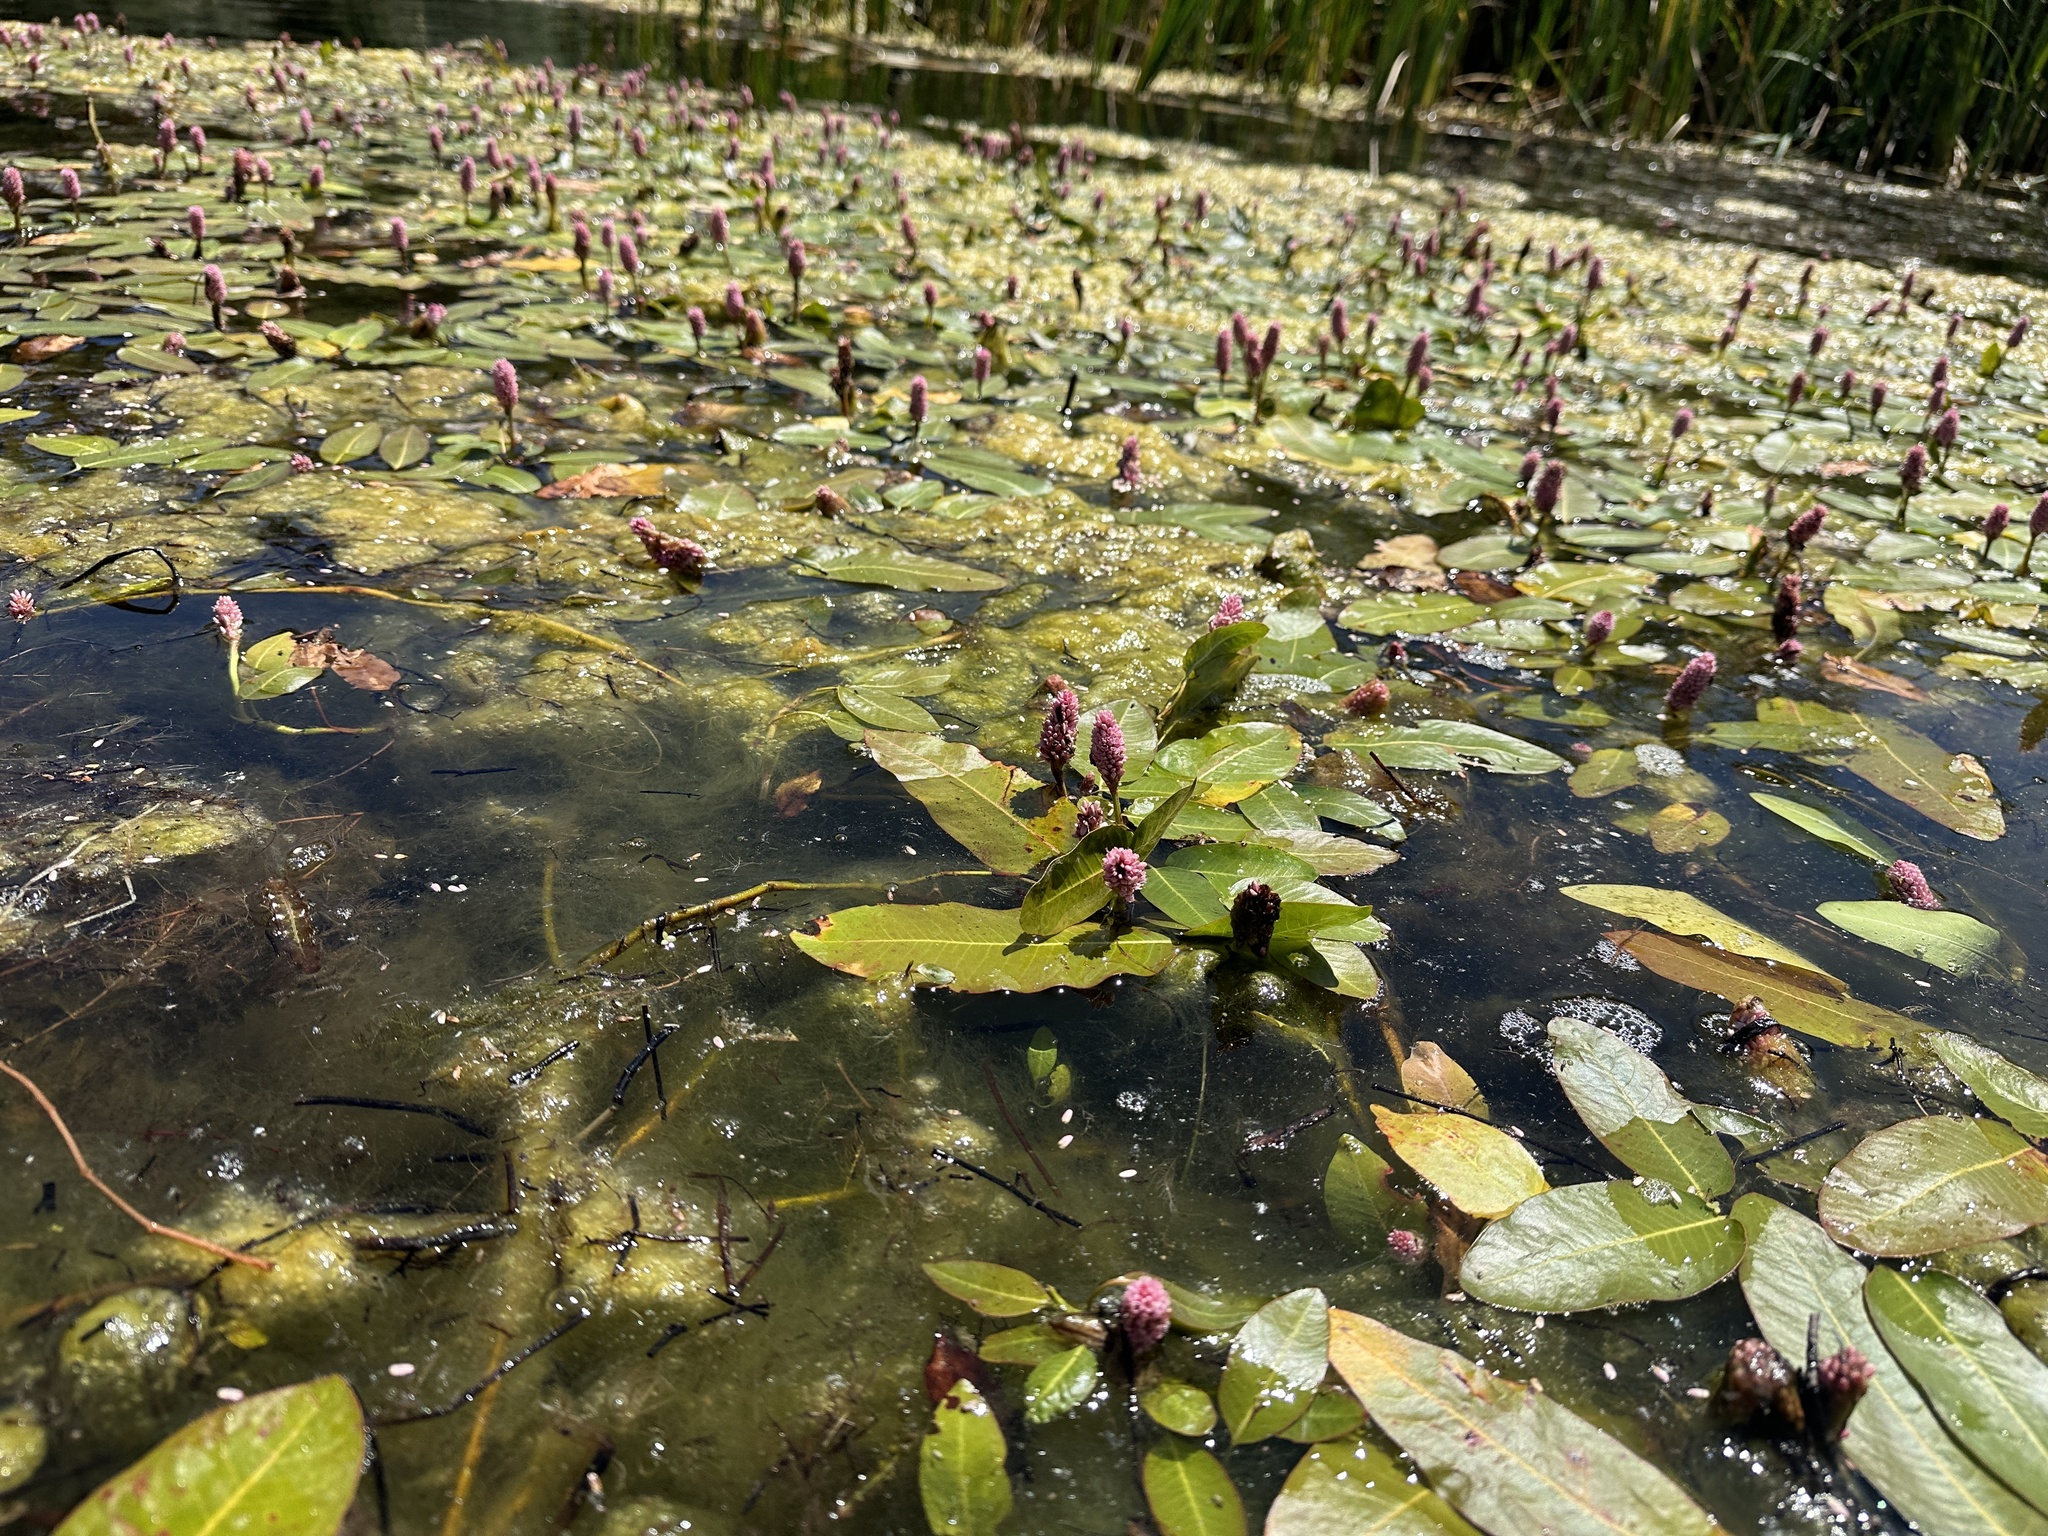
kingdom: Plantae
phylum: Tracheophyta
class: Magnoliopsida
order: Caryophyllales
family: Polygonaceae
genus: Persicaria
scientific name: Persicaria amphibia
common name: Amphibious bistort
